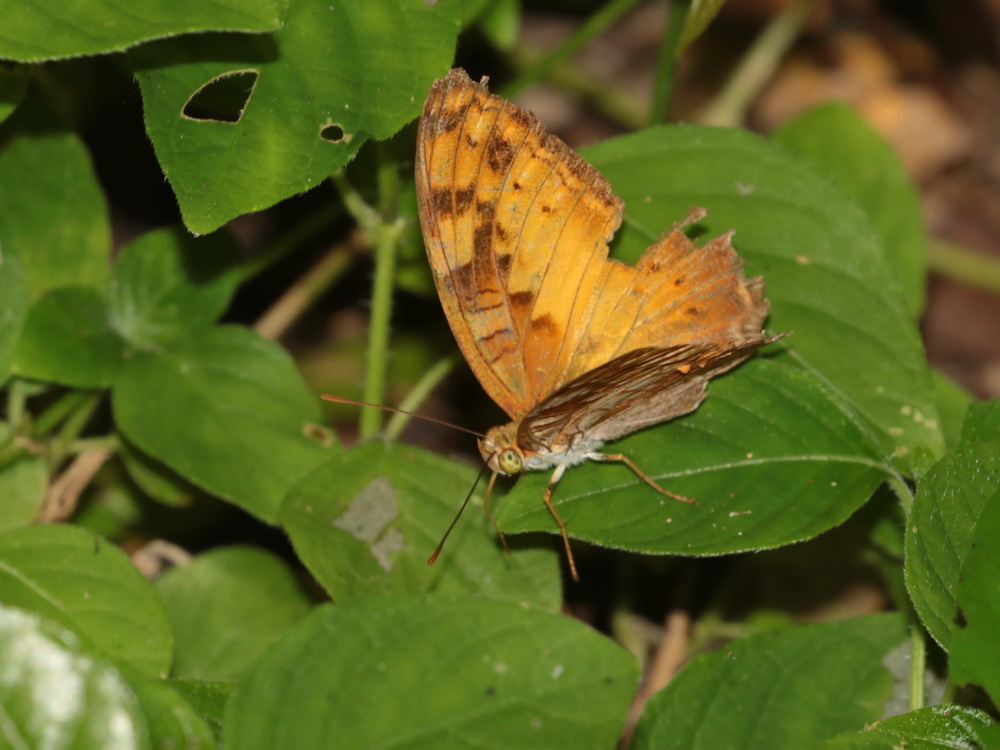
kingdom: Animalia
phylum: Arthropoda
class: Insecta
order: Lepidoptera
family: Nymphalidae
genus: Vagrans
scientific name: Vagrans sinha
